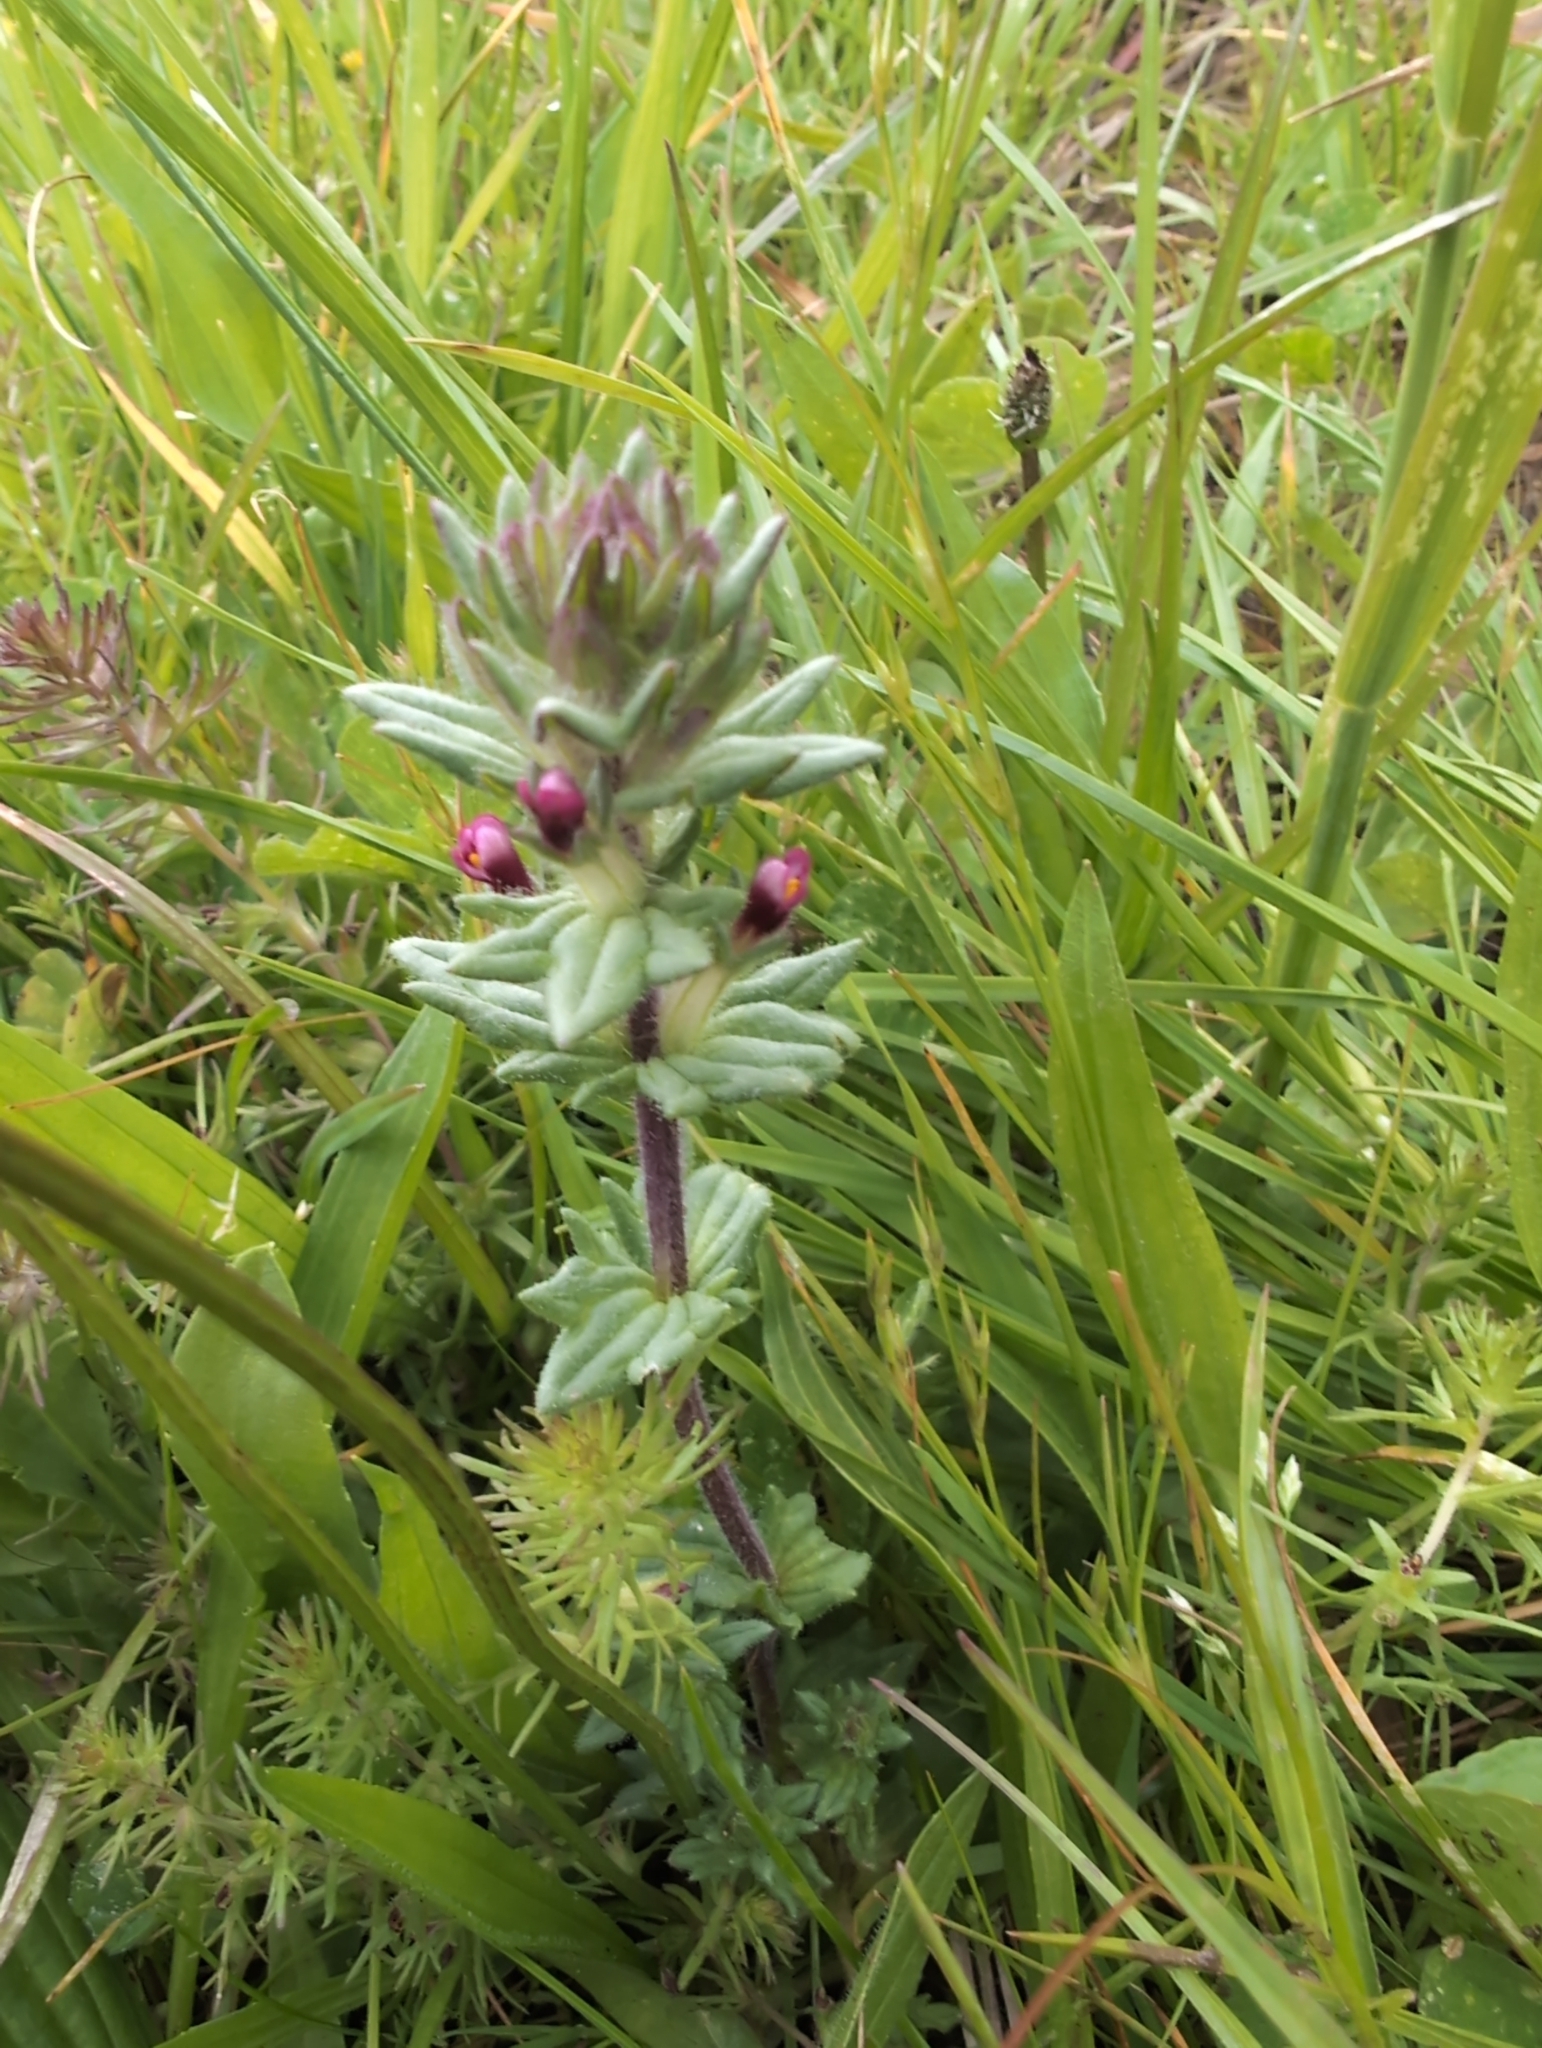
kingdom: Plantae
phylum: Tracheophyta
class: Magnoliopsida
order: Lamiales
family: Orobanchaceae
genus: Parentucellia
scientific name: Parentucellia latifolia
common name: Broadleaf glandweed
